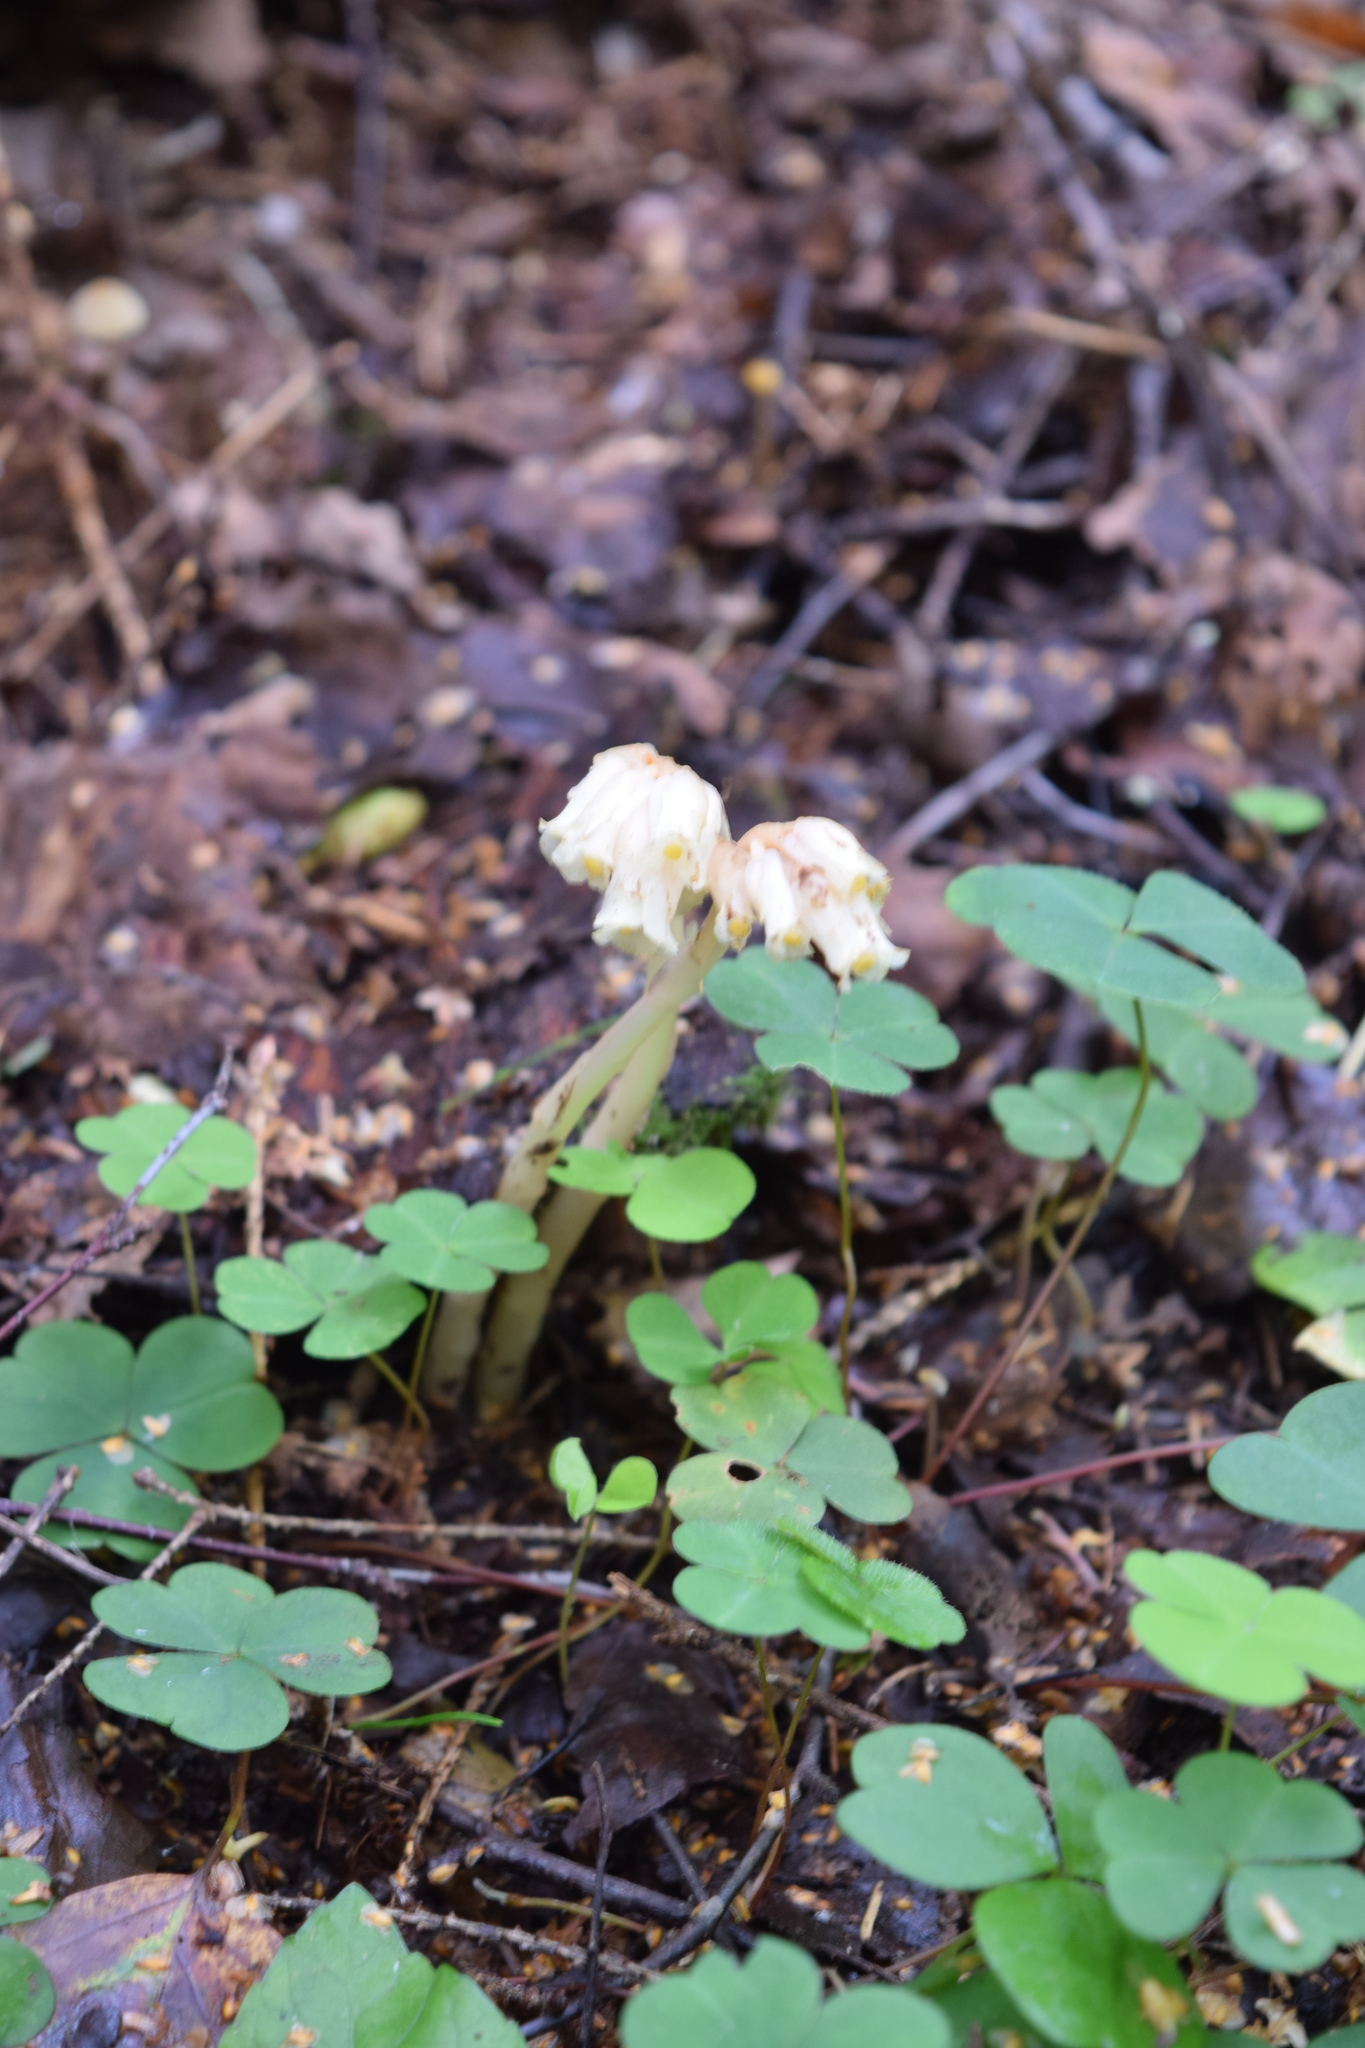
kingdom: Plantae
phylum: Tracheophyta
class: Magnoliopsida
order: Ericales
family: Ericaceae
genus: Hypopitys
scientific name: Hypopitys monotropa
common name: Yellow bird's-nest
